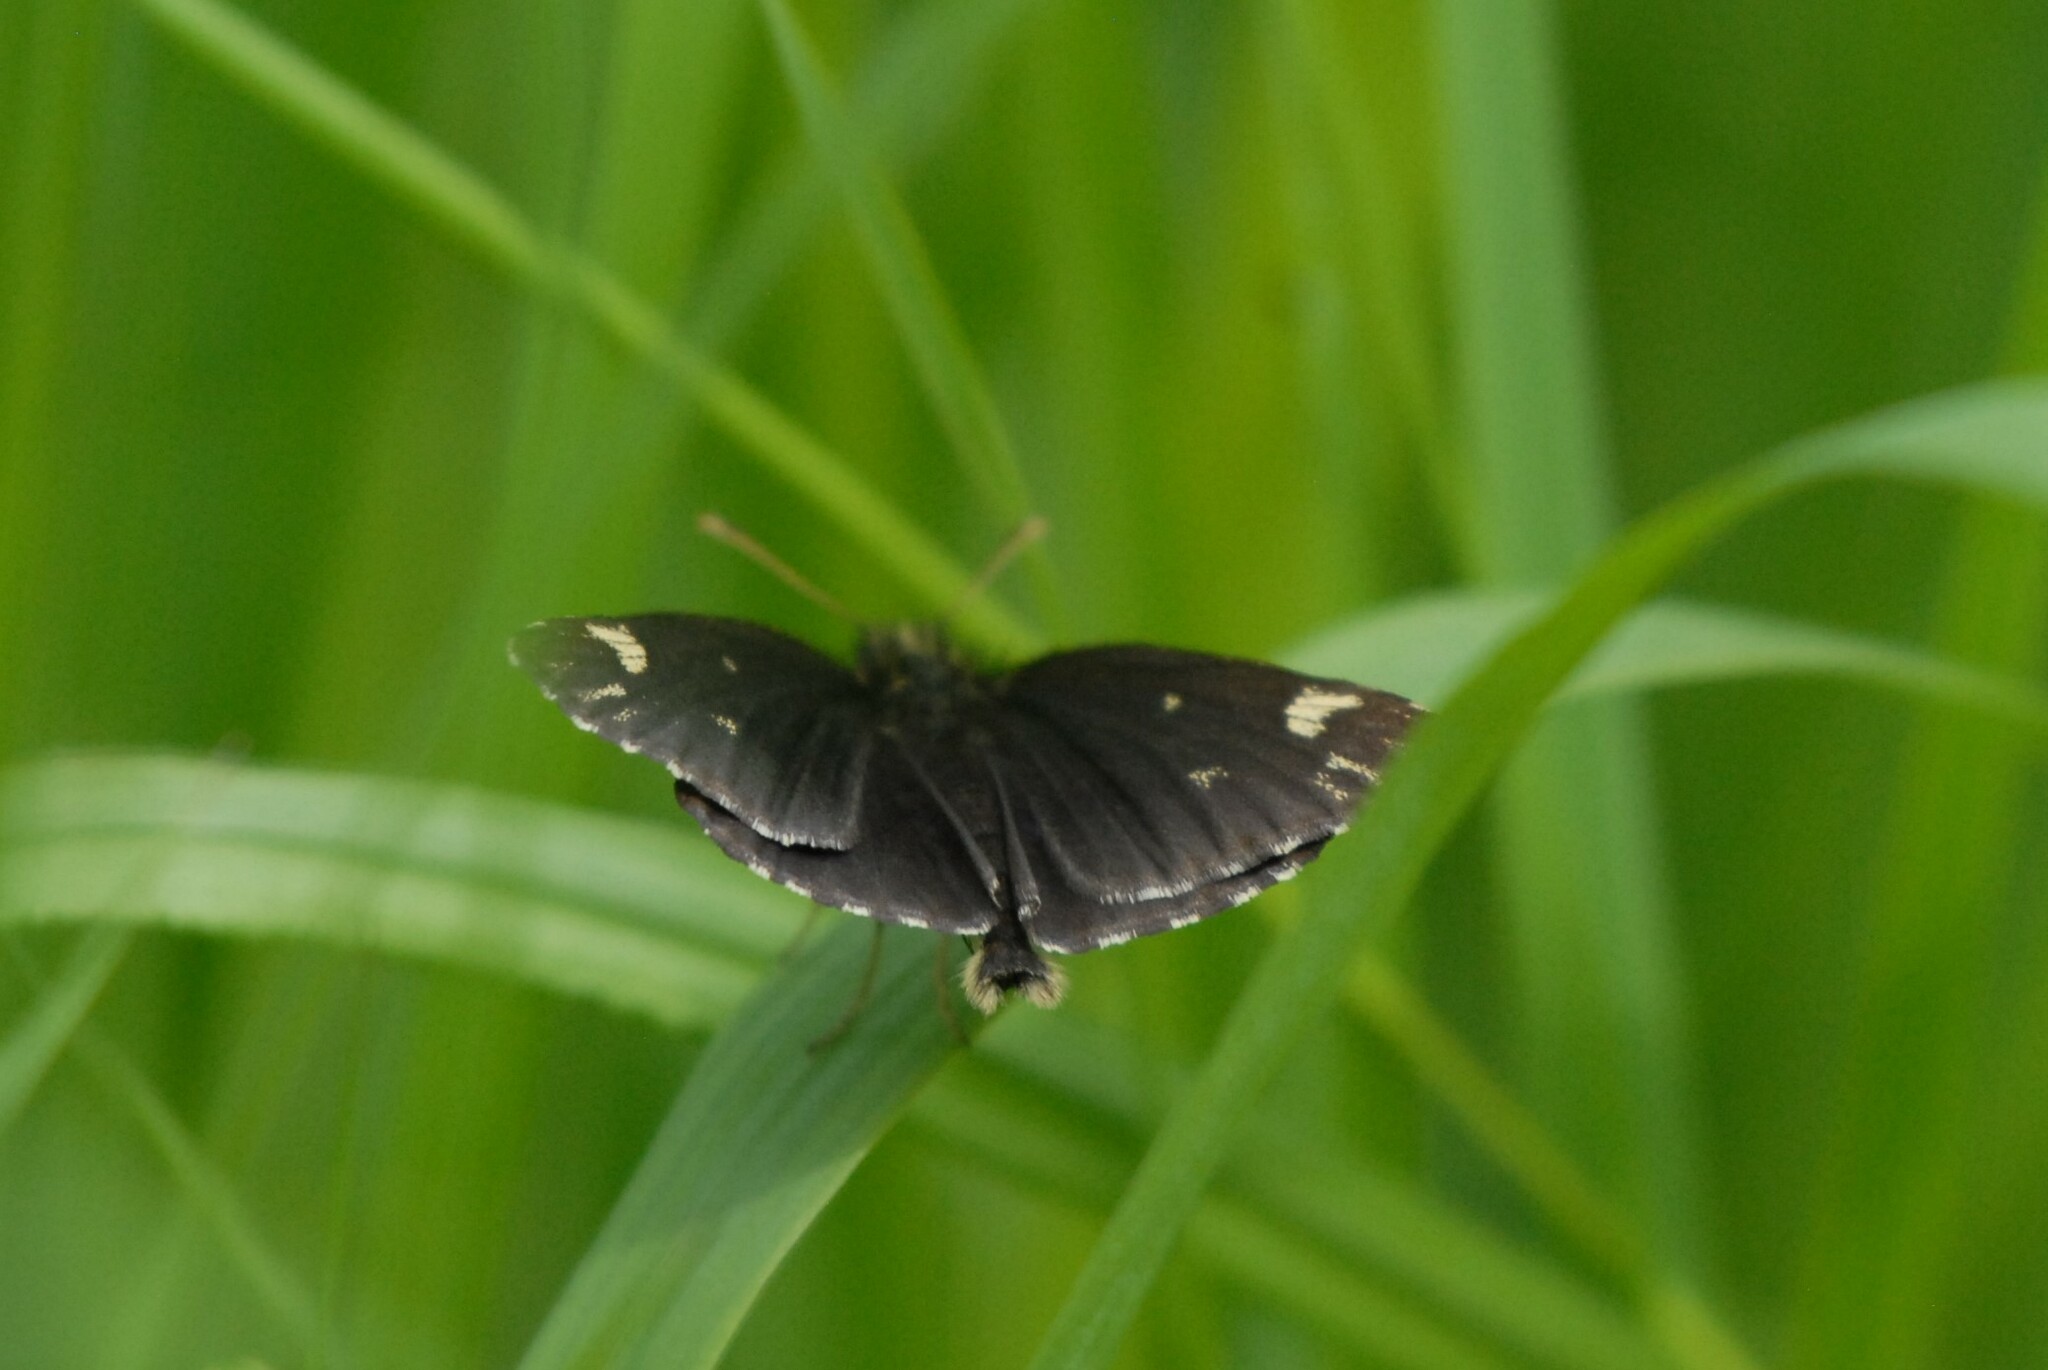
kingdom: Animalia
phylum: Arthropoda
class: Insecta
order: Lepidoptera
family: Hesperiidae
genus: Heteropterus
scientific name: Heteropterus morpheus
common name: Large chequered skipper
